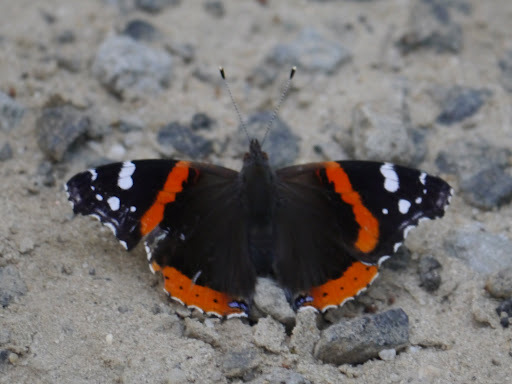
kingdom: Animalia
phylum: Arthropoda
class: Insecta
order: Lepidoptera
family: Nymphalidae
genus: Vanessa
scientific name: Vanessa atalanta
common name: Red admiral
